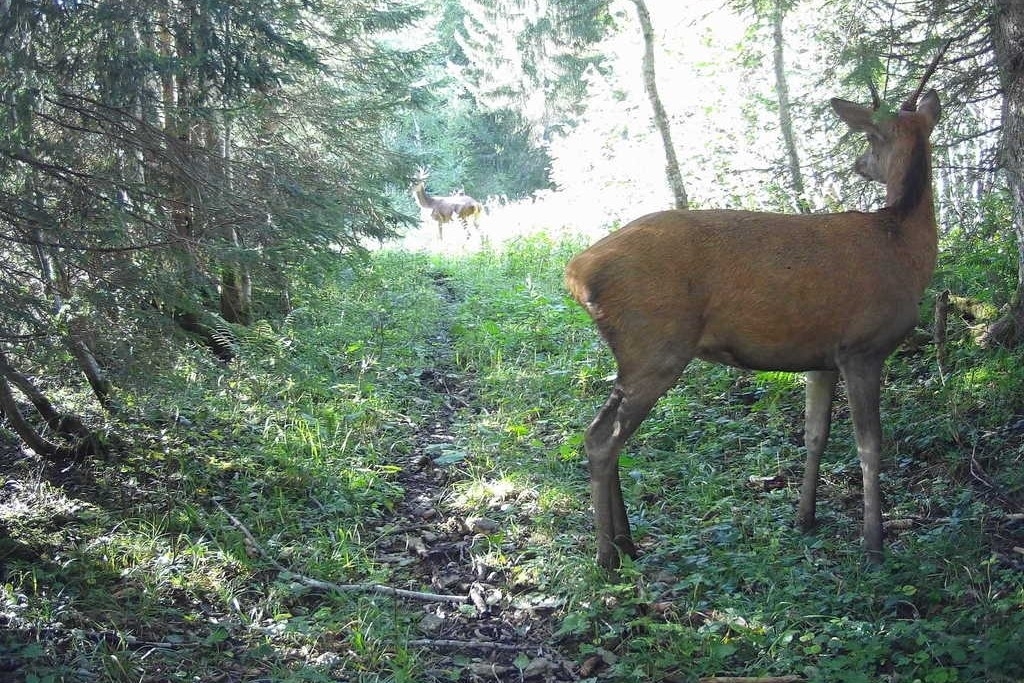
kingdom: Animalia
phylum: Chordata
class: Mammalia
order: Artiodactyla
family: Cervidae
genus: Cervus
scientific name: Cervus elaphus
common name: Red deer
